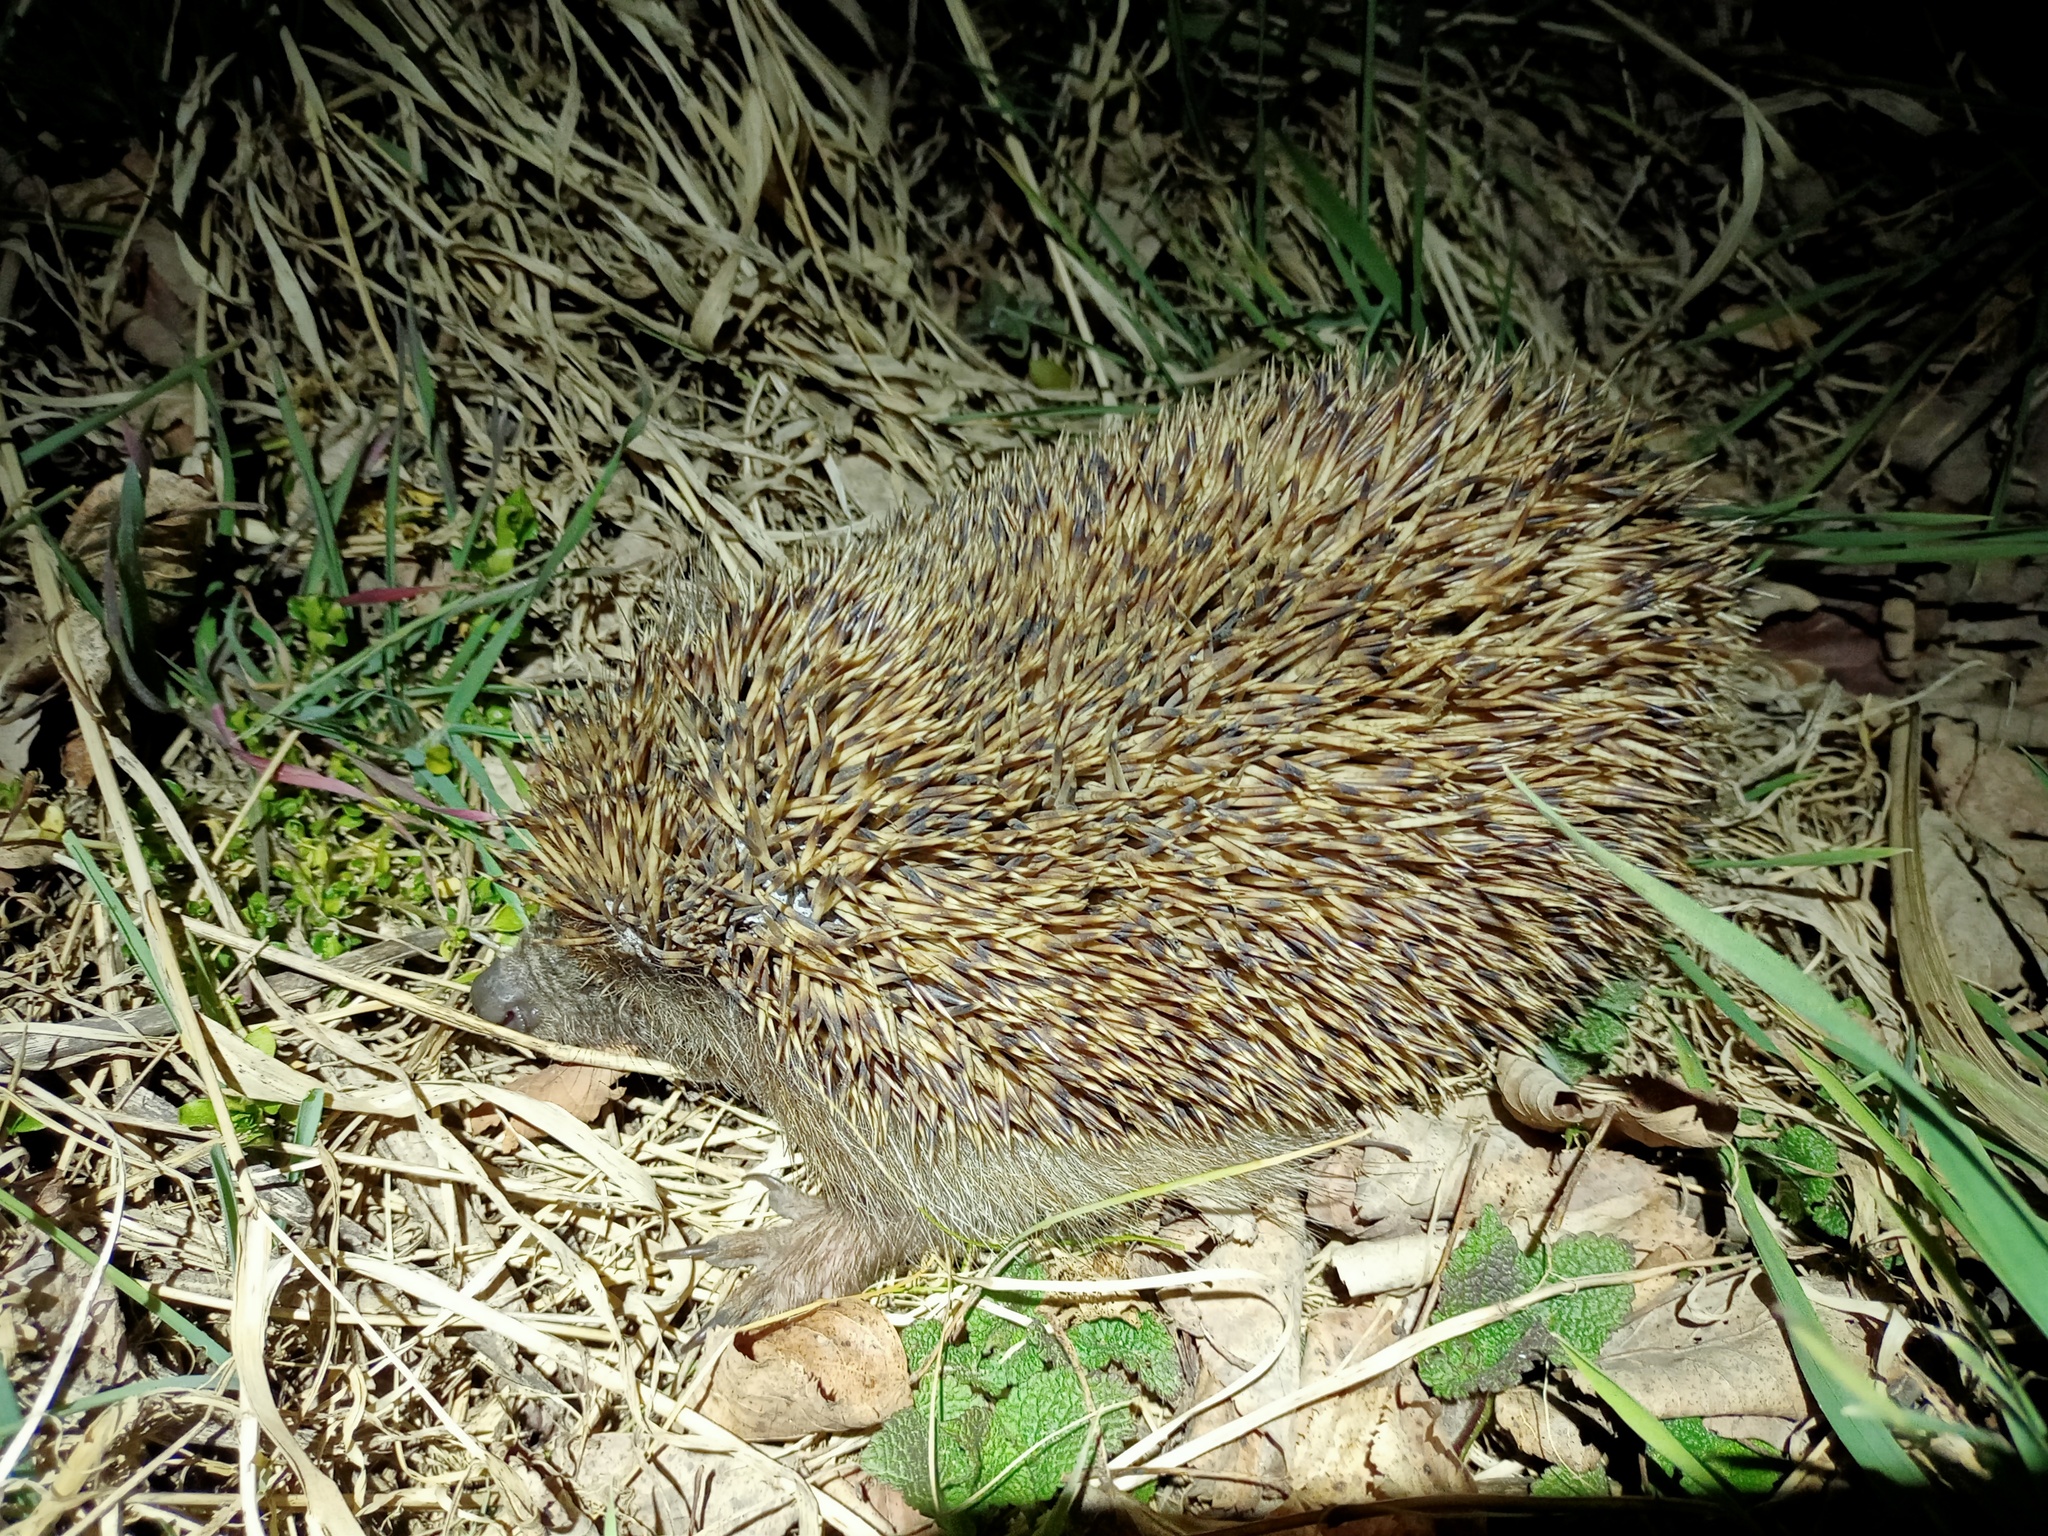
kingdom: Animalia
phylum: Chordata
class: Mammalia
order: Erinaceomorpha
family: Erinaceidae
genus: Erinaceus
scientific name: Erinaceus roumanicus
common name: Northern white-breasted hedgehog
